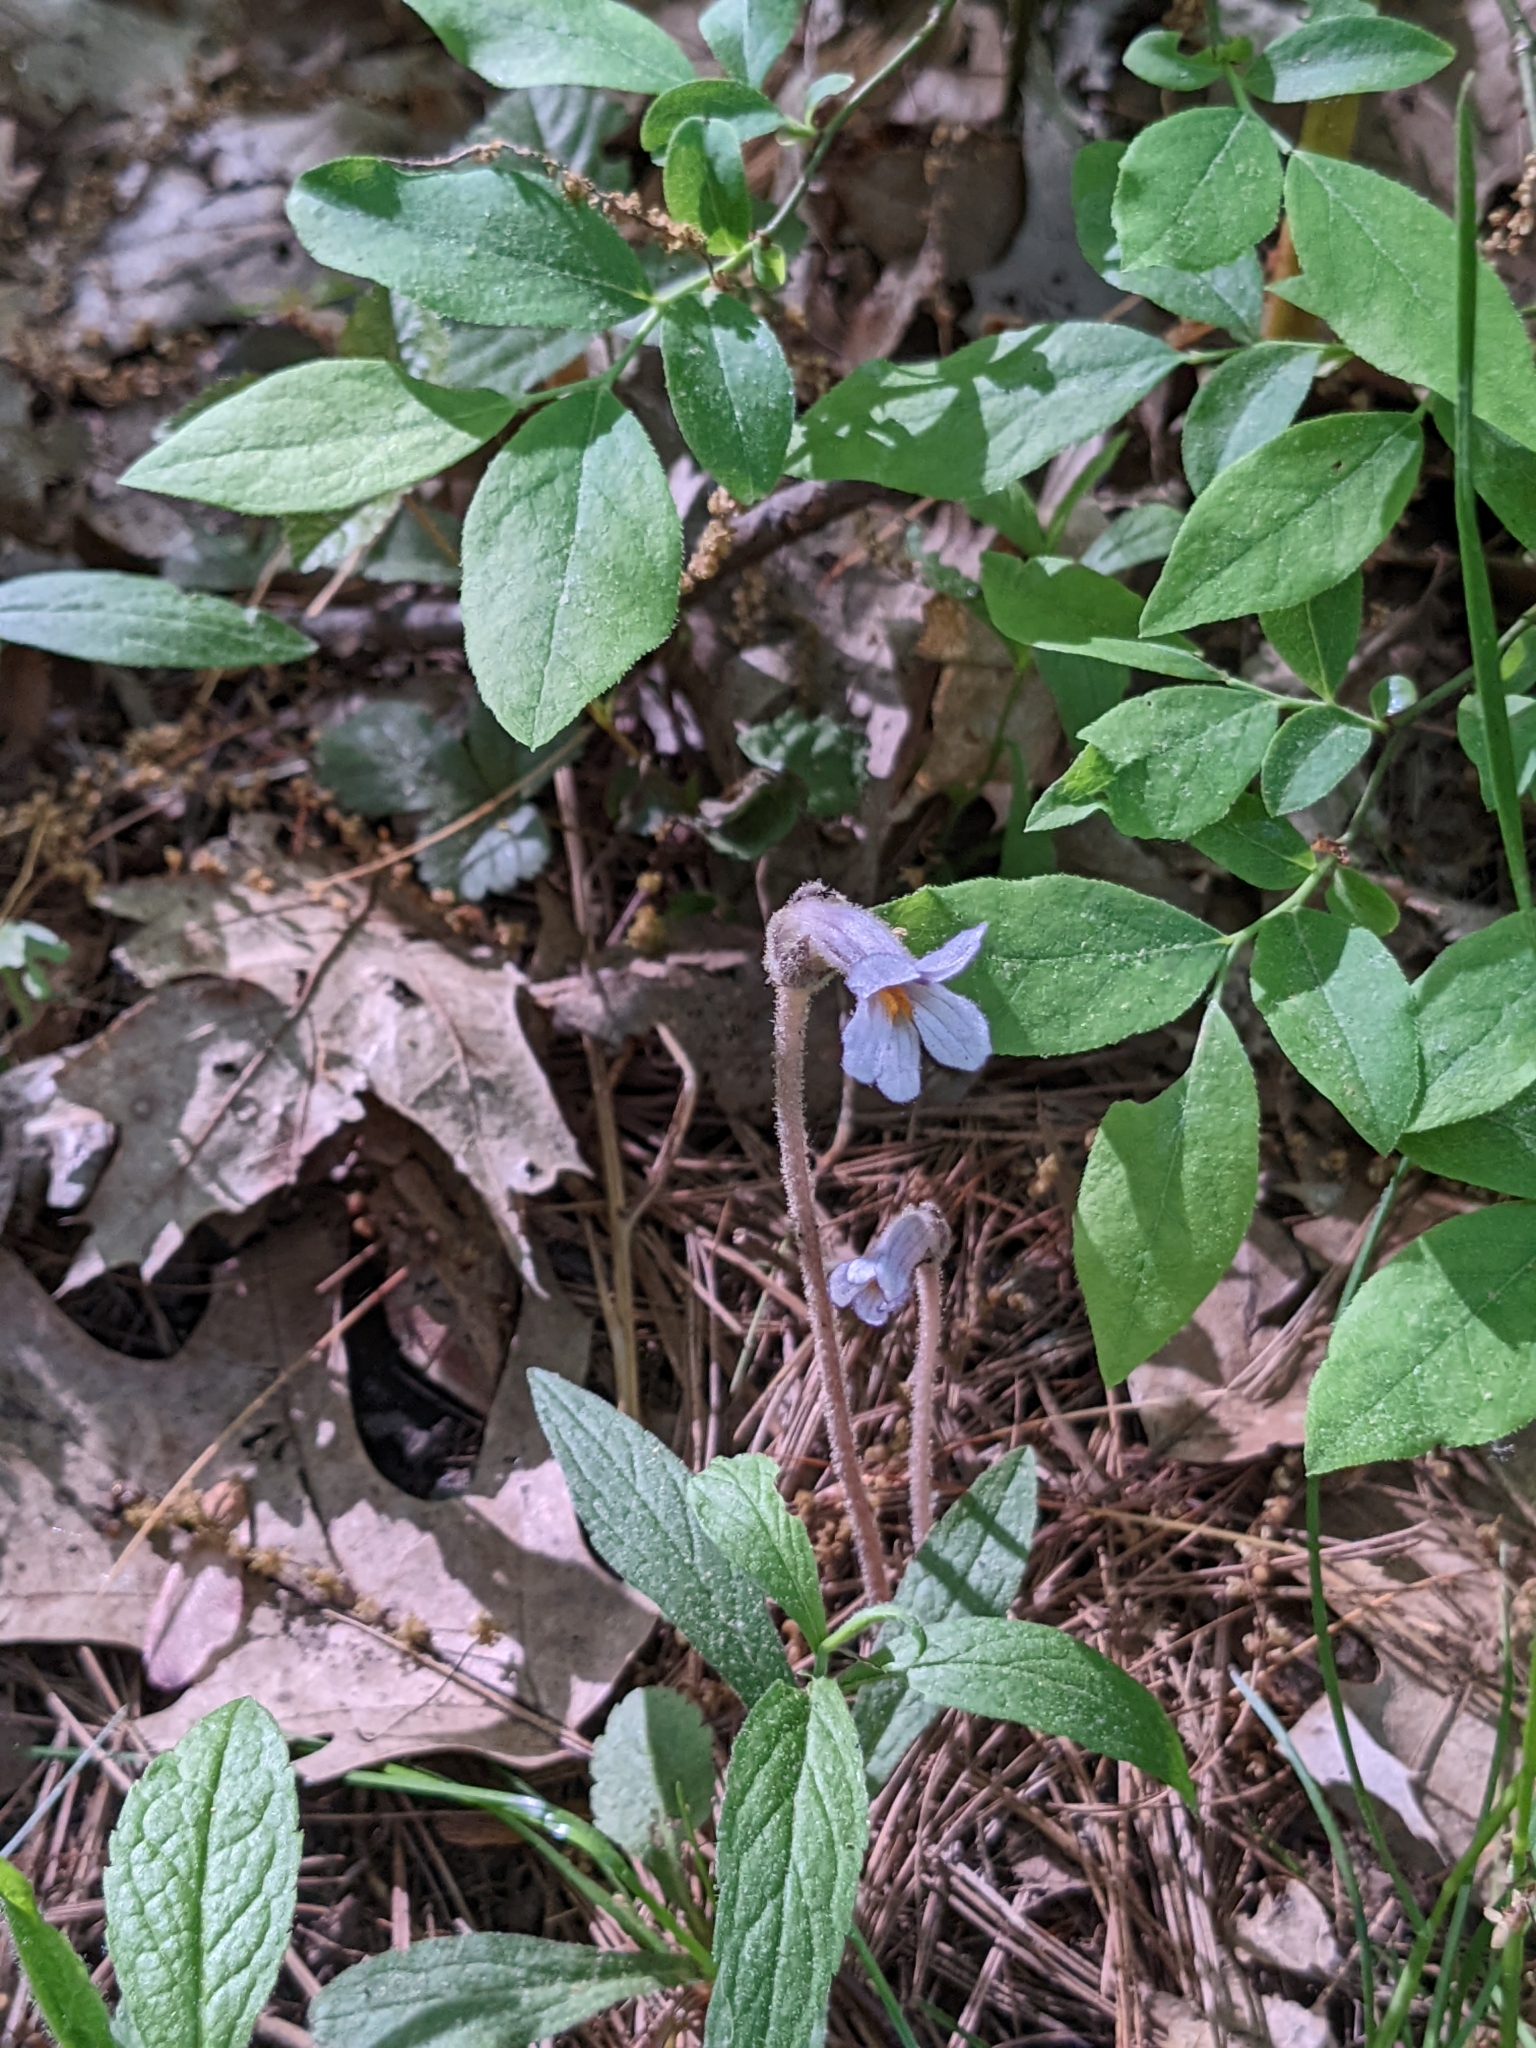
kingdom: Plantae
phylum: Tracheophyta
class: Magnoliopsida
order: Lamiales
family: Orobanchaceae
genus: Aphyllon
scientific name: Aphyllon uniflorum
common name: One-flowered broomrape
